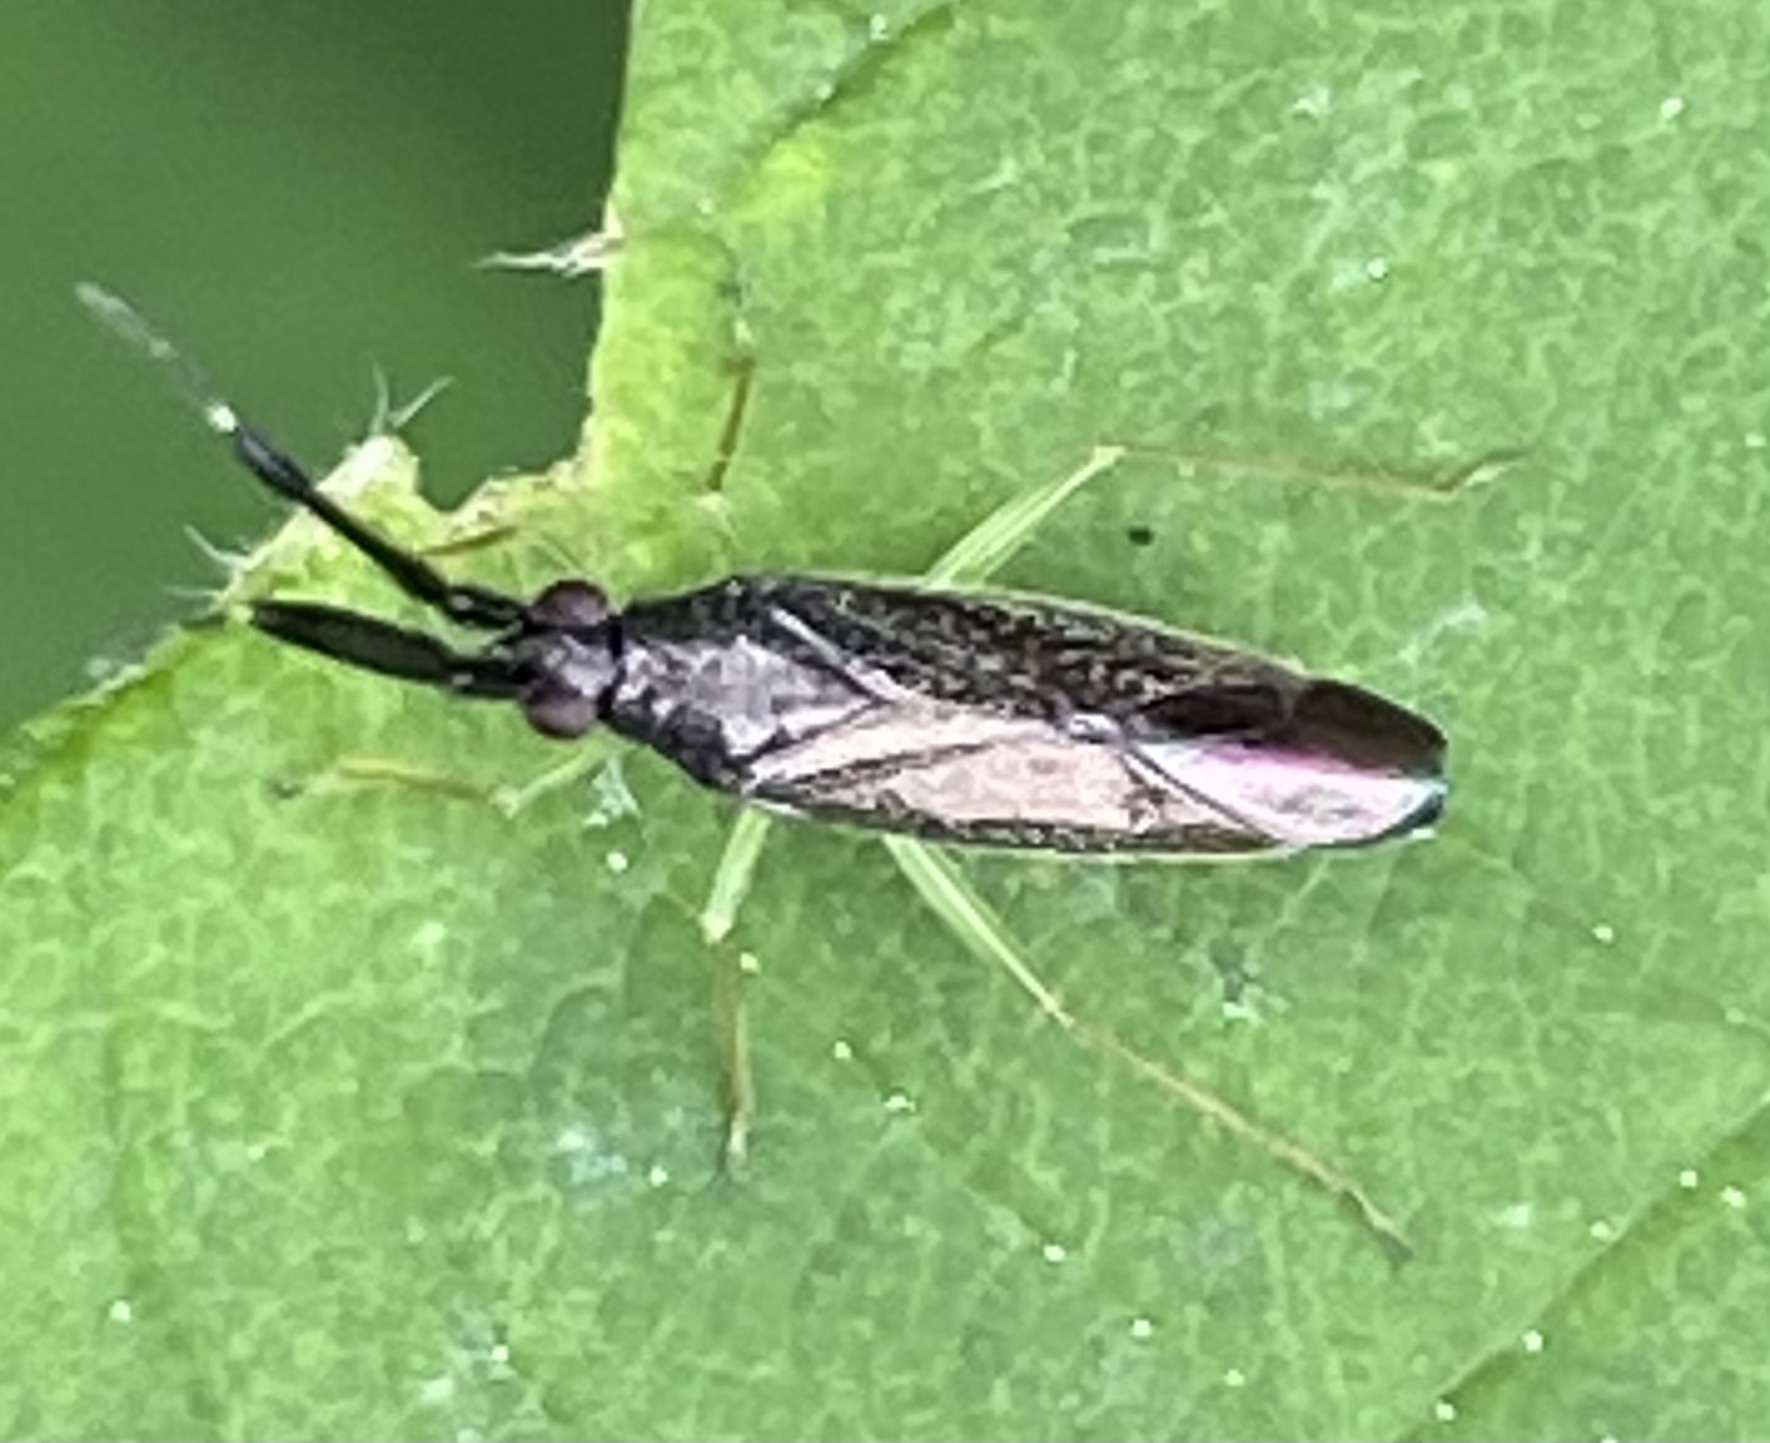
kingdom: Animalia
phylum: Arthropoda
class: Insecta
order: Hemiptera
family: Miridae
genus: Heterotoma
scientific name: Heterotoma planicornis
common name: Plant bug
